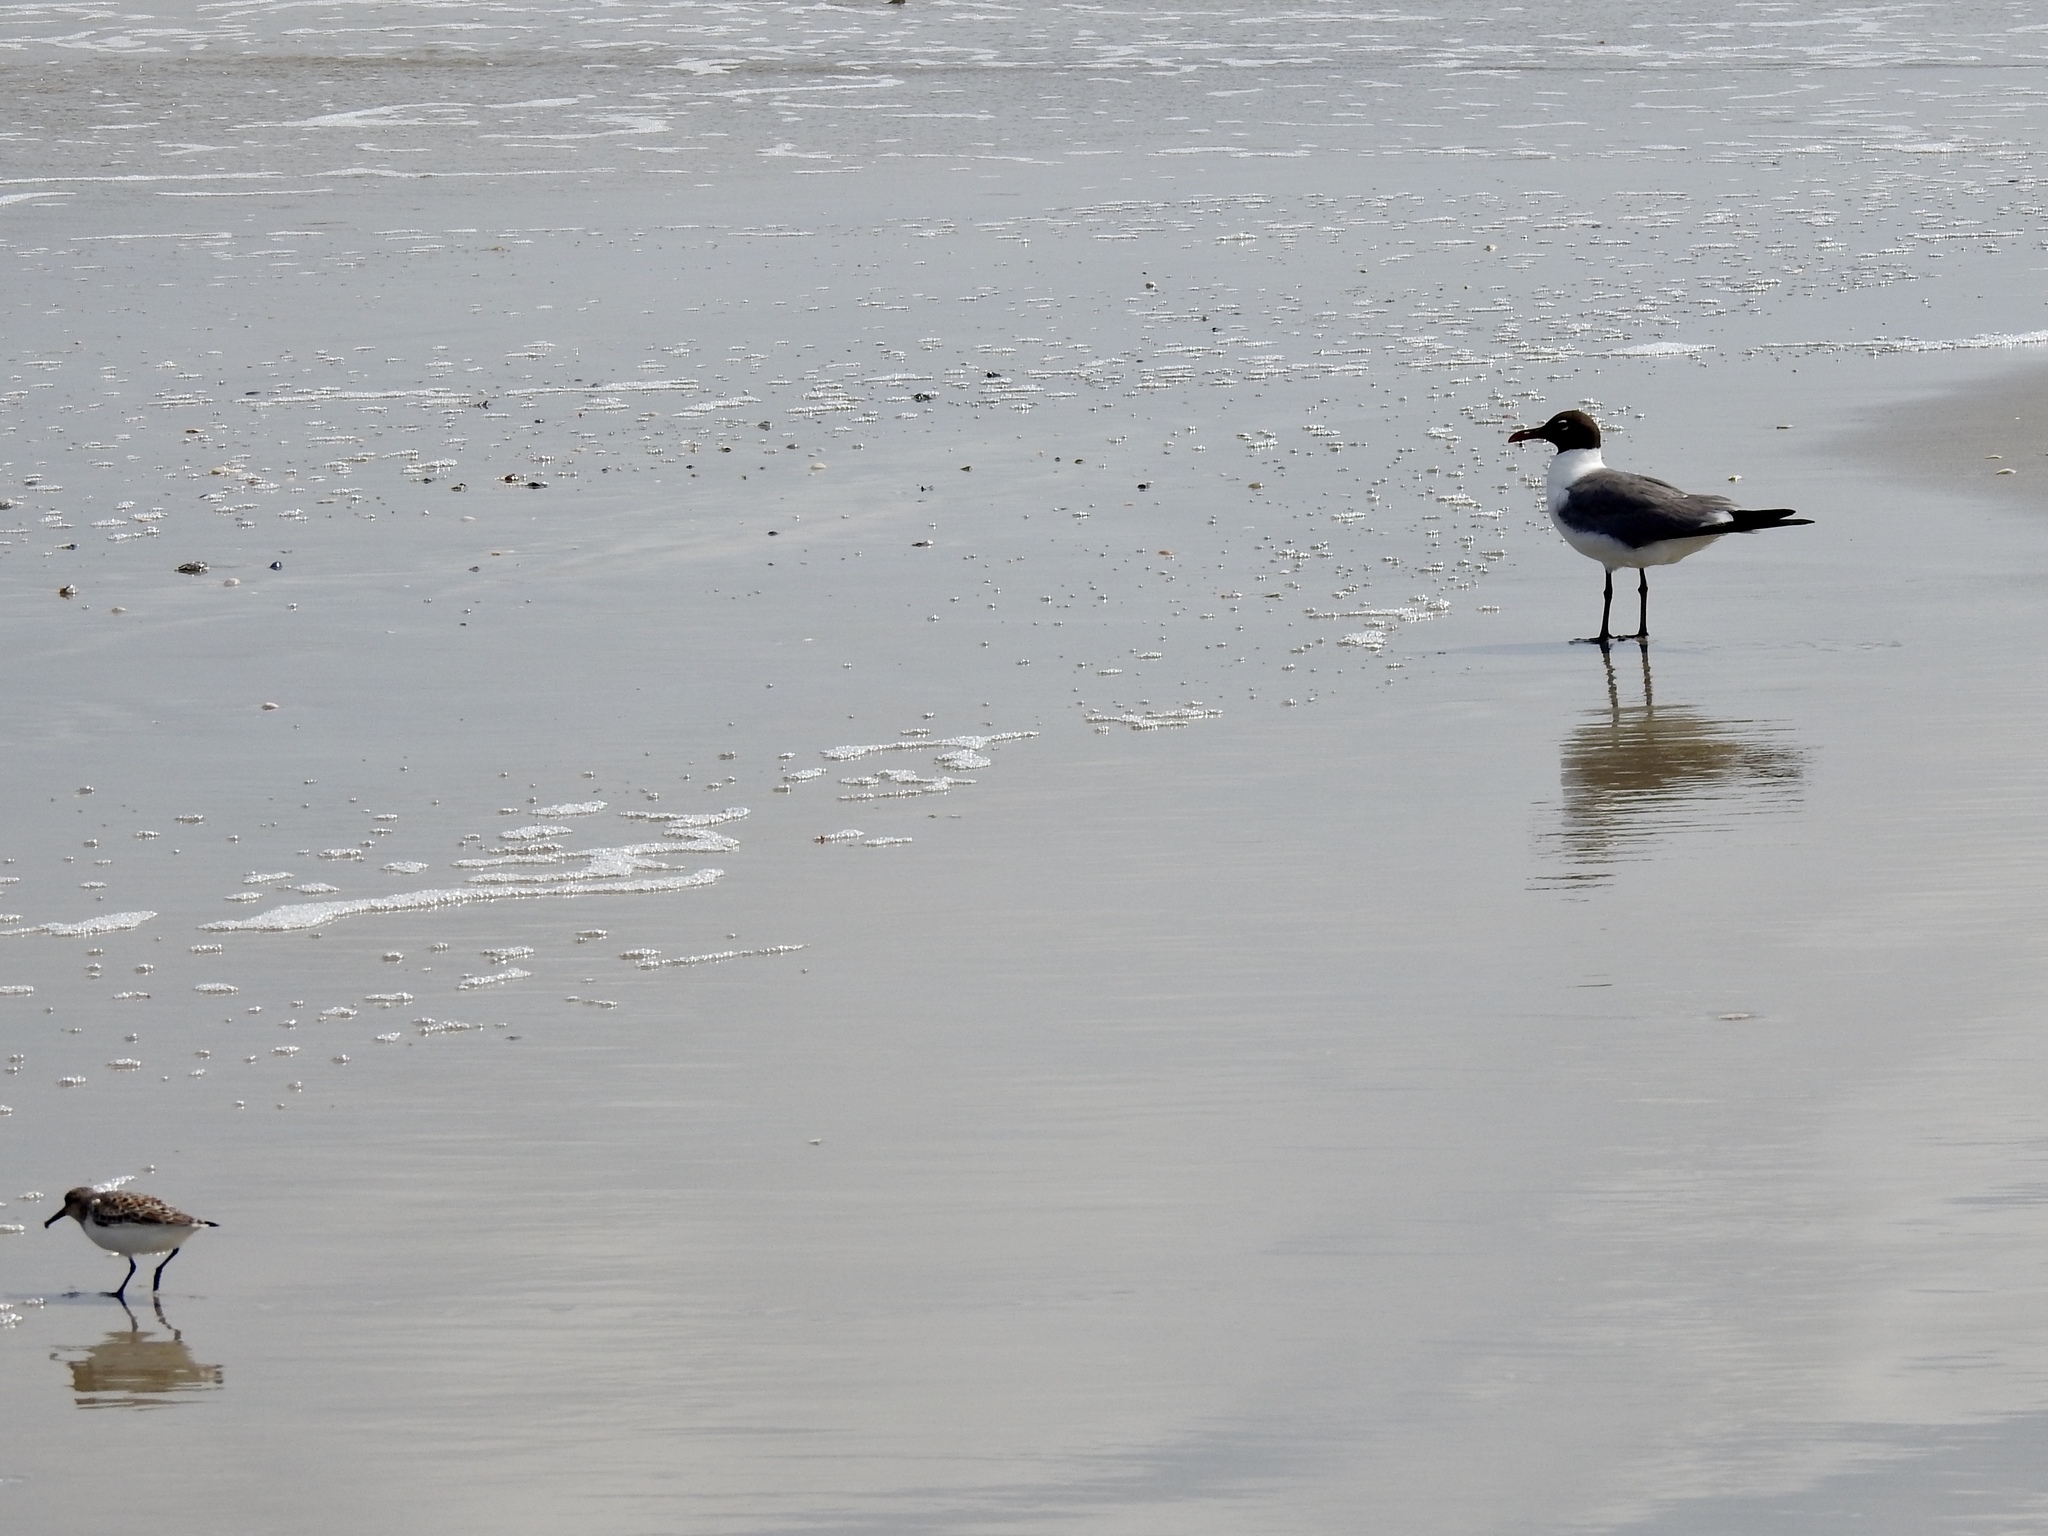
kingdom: Animalia
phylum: Chordata
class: Aves
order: Charadriiformes
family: Scolopacidae
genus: Calidris
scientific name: Calidris alba
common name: Sanderling
